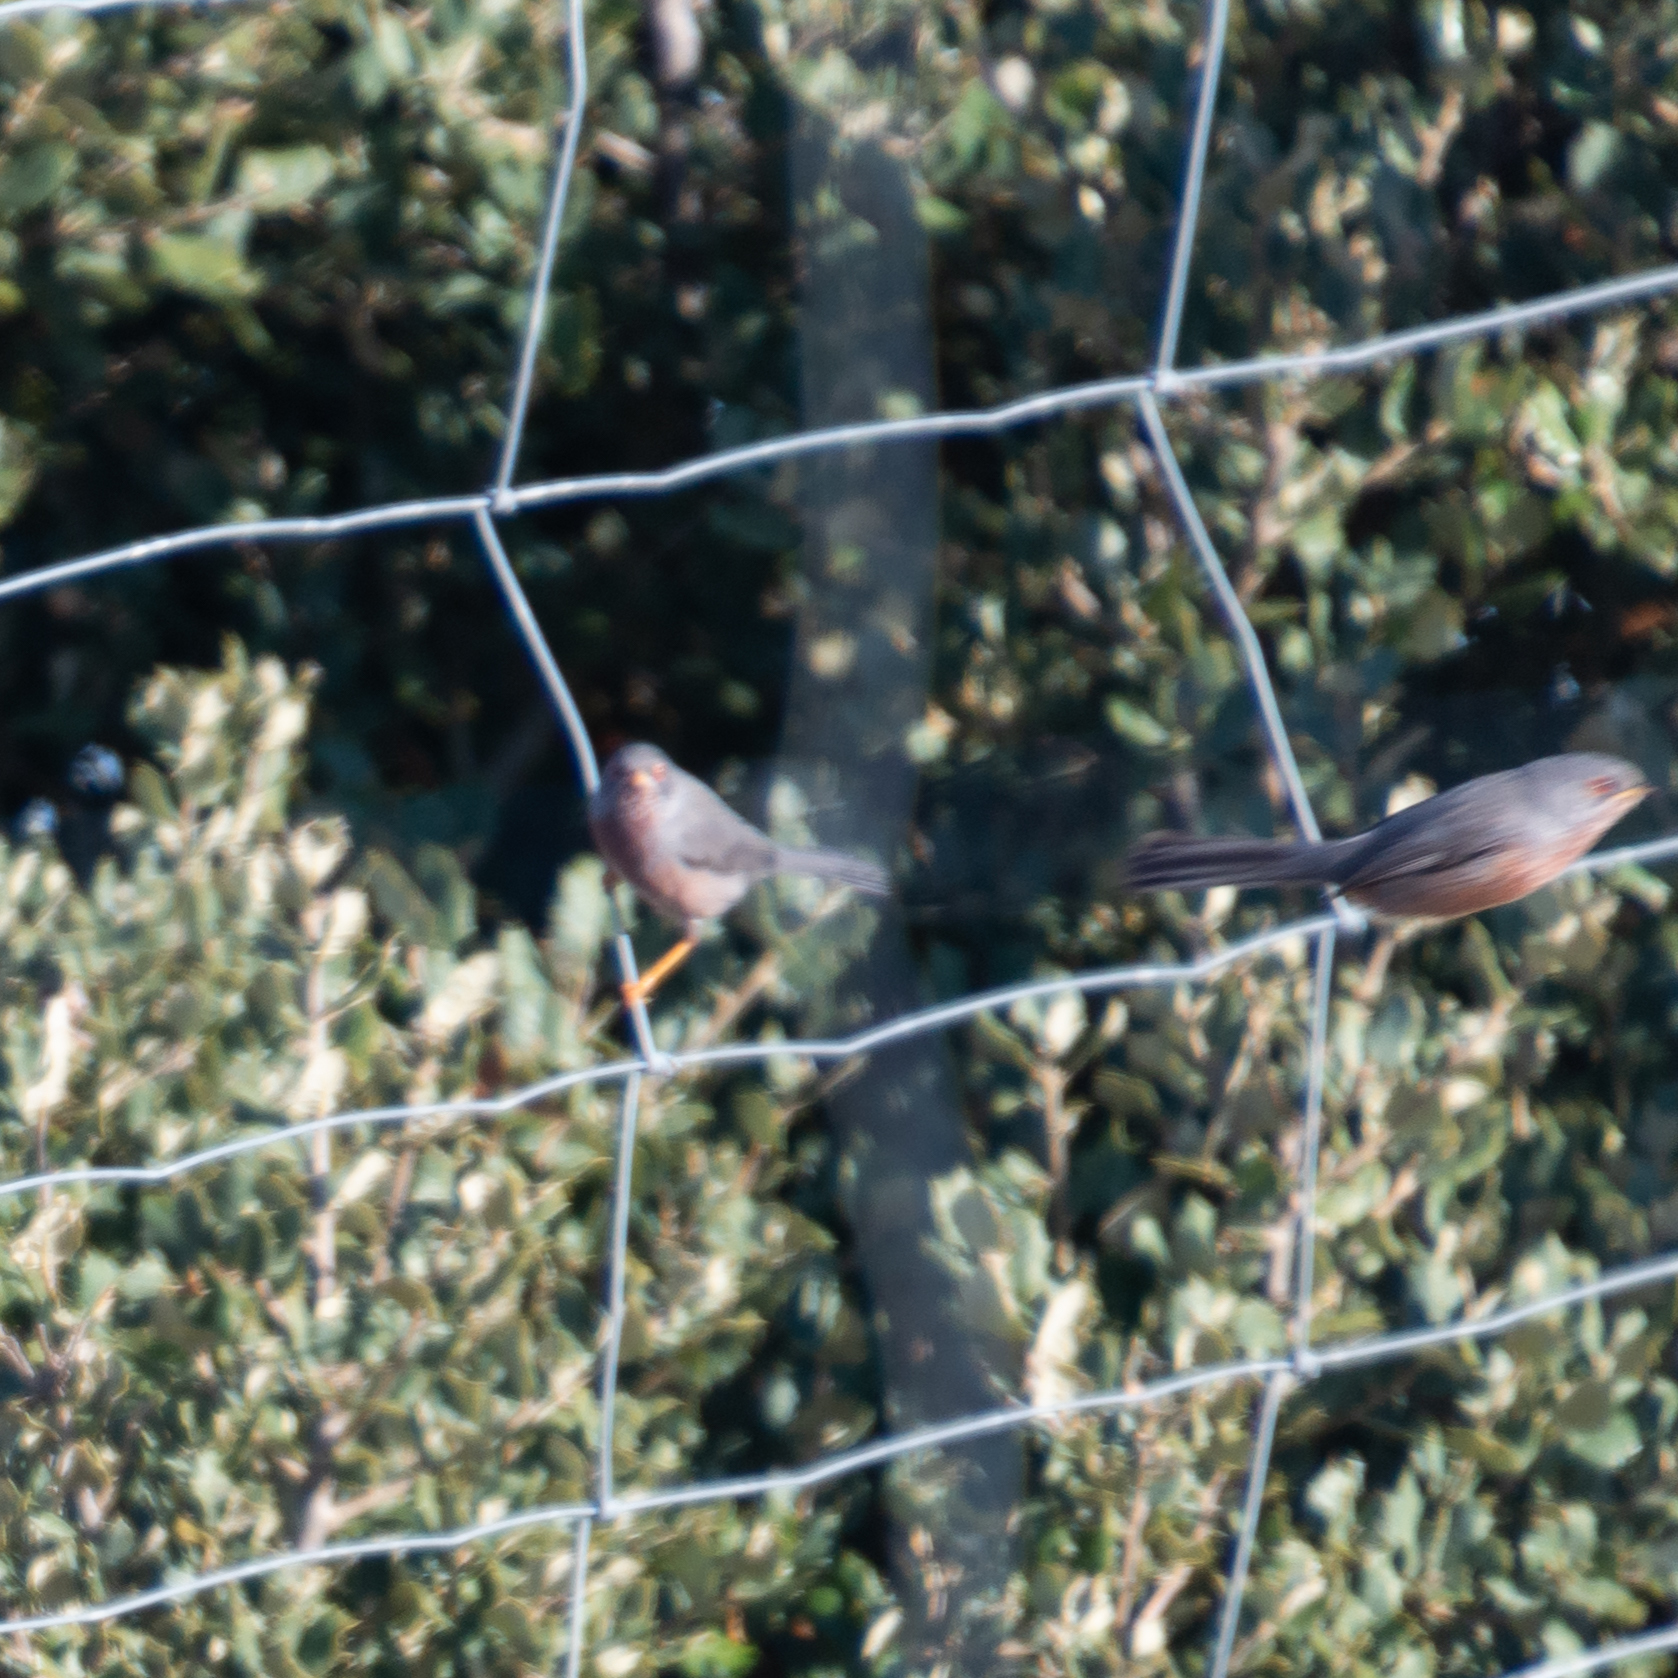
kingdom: Animalia
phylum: Chordata
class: Aves
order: Passeriformes
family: Sylviidae
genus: Sylvia
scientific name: Sylvia undata
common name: Dartford warbler
